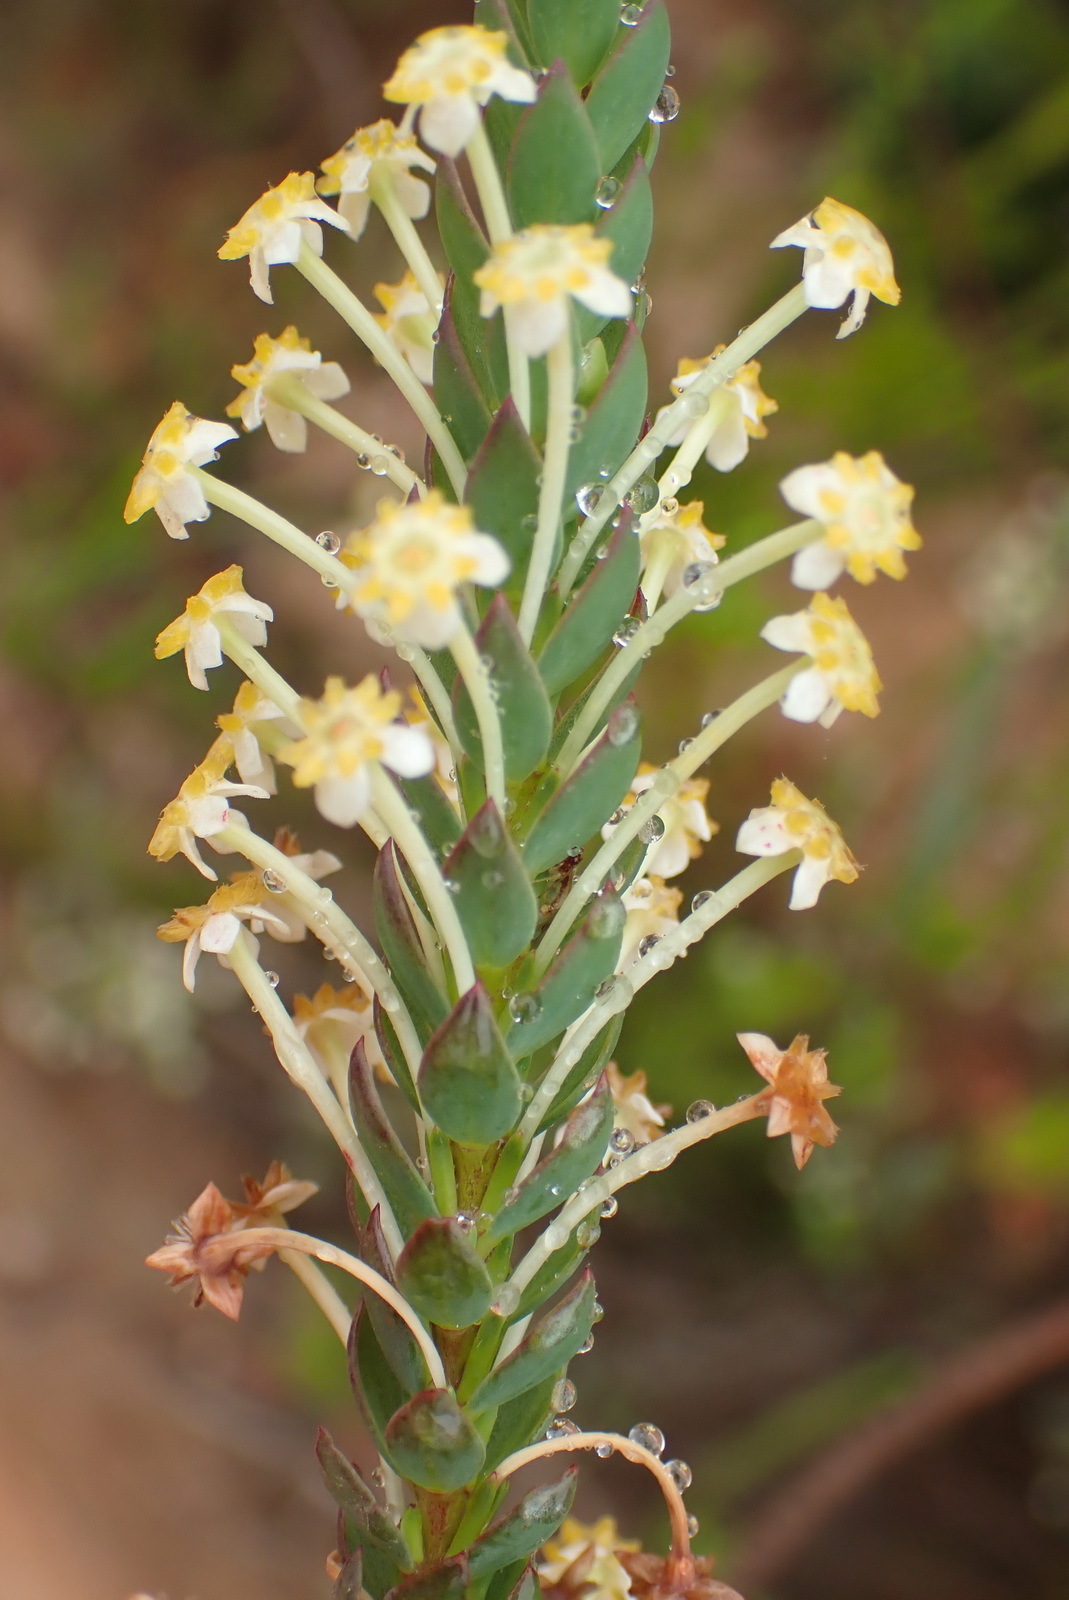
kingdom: Plantae
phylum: Tracheophyta
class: Magnoliopsida
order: Malvales
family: Thymelaeaceae
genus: Struthiola
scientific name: Struthiola eckloniana
